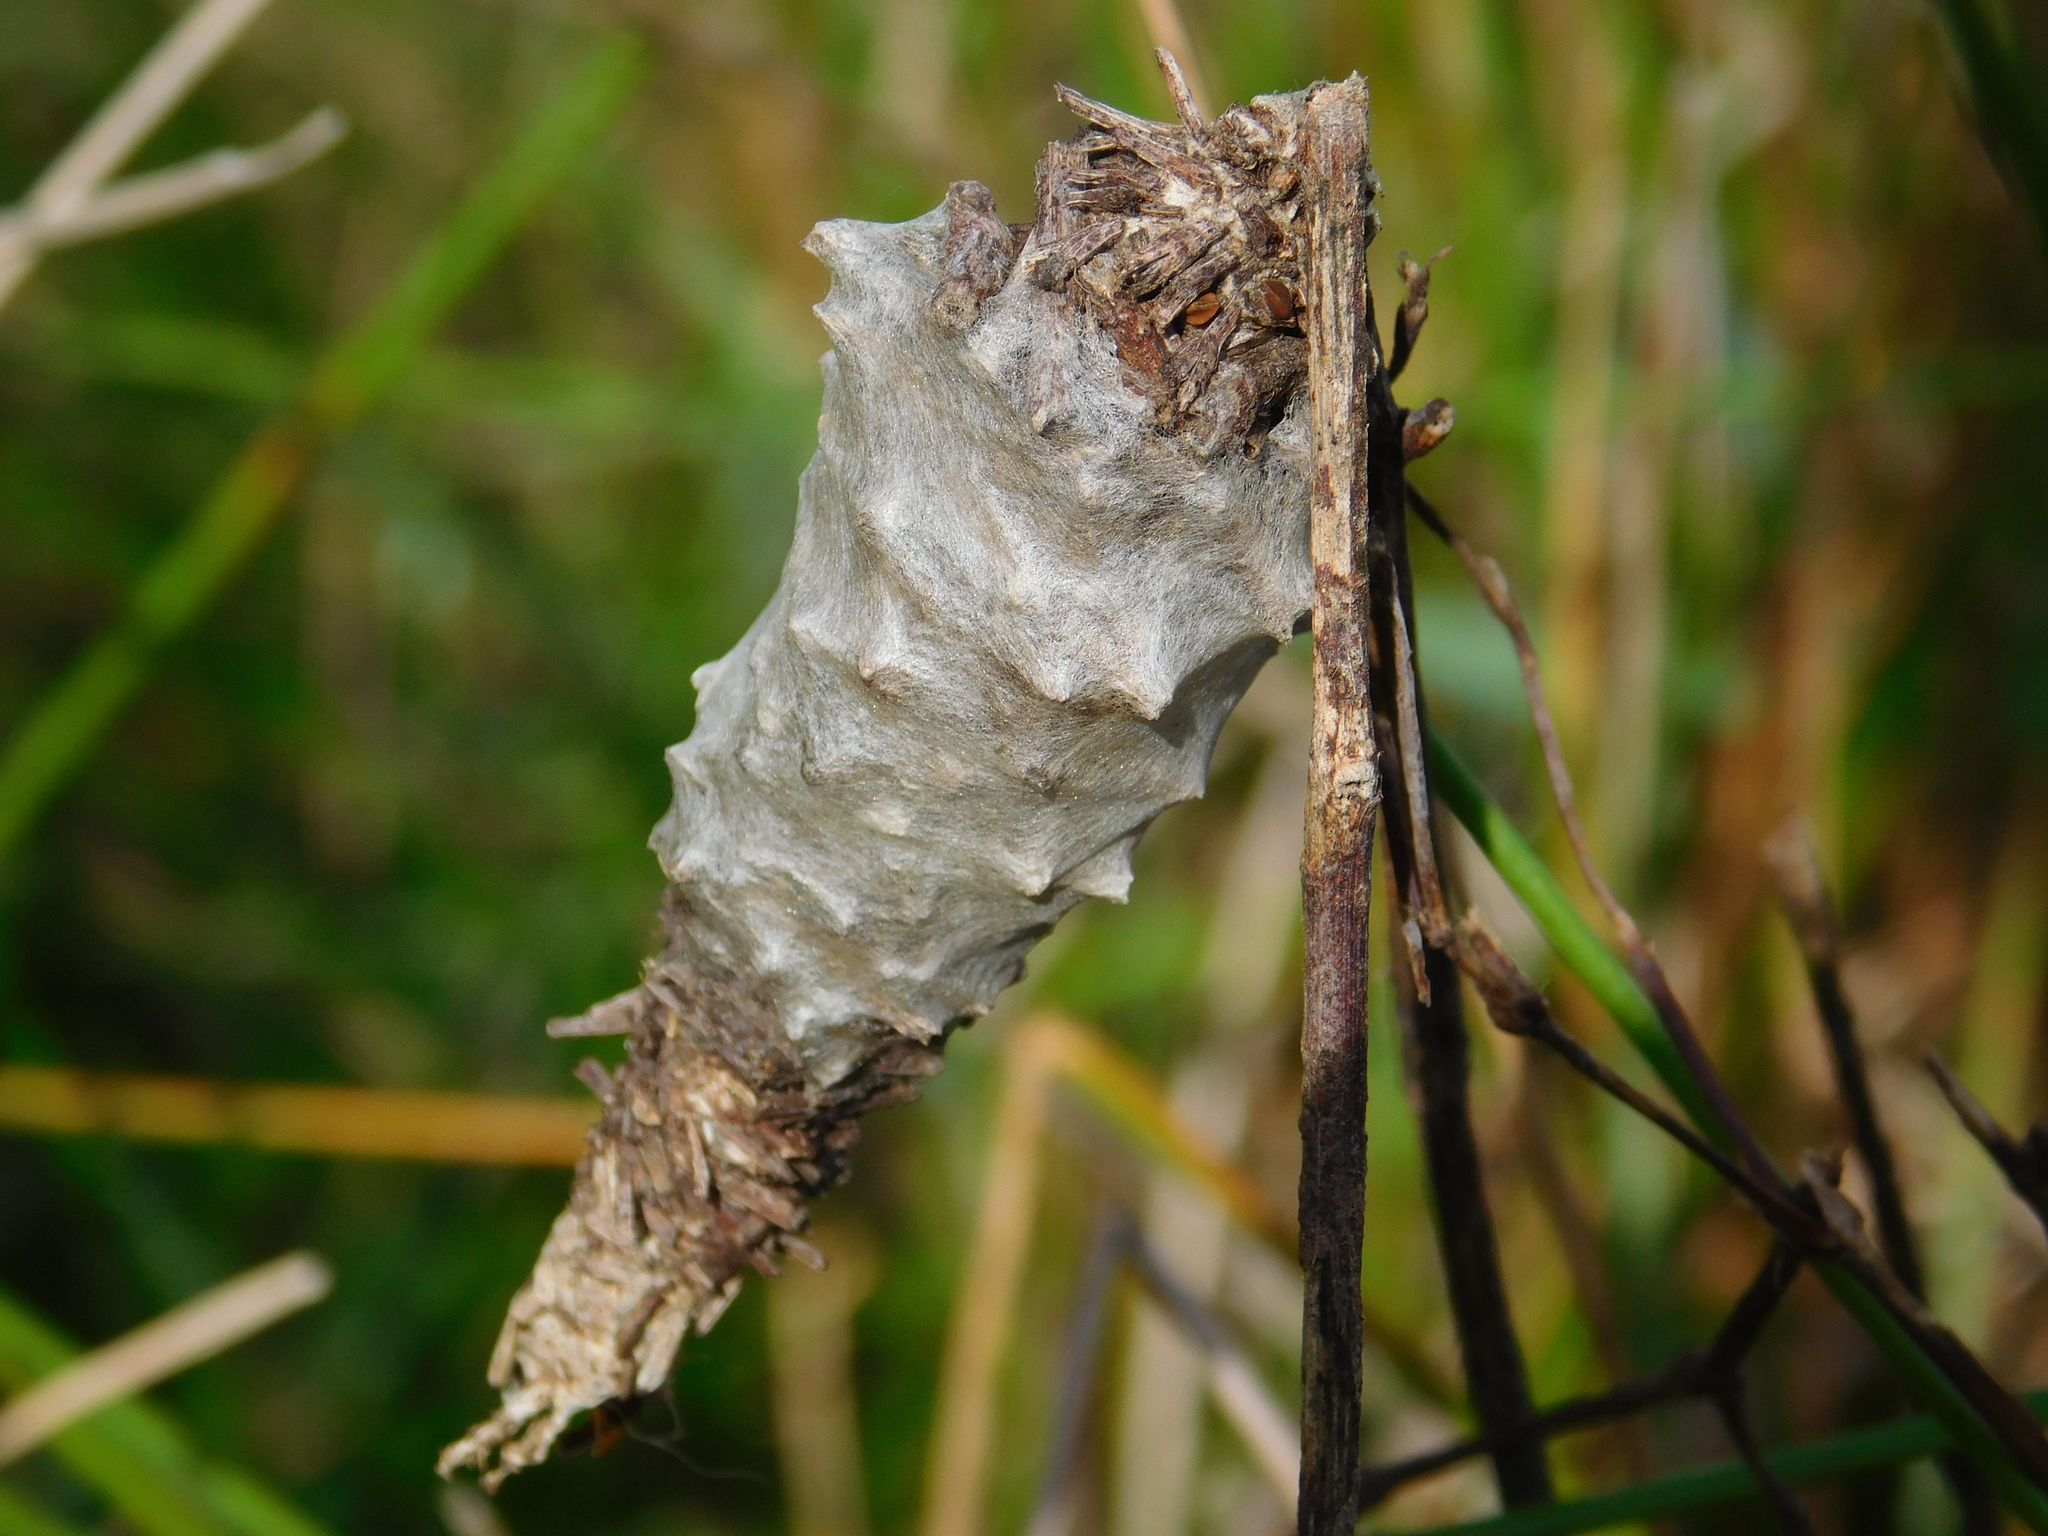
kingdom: Animalia
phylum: Arthropoda
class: Insecta
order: Lepidoptera
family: Psychidae
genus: Oiketicus
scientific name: Oiketicus
